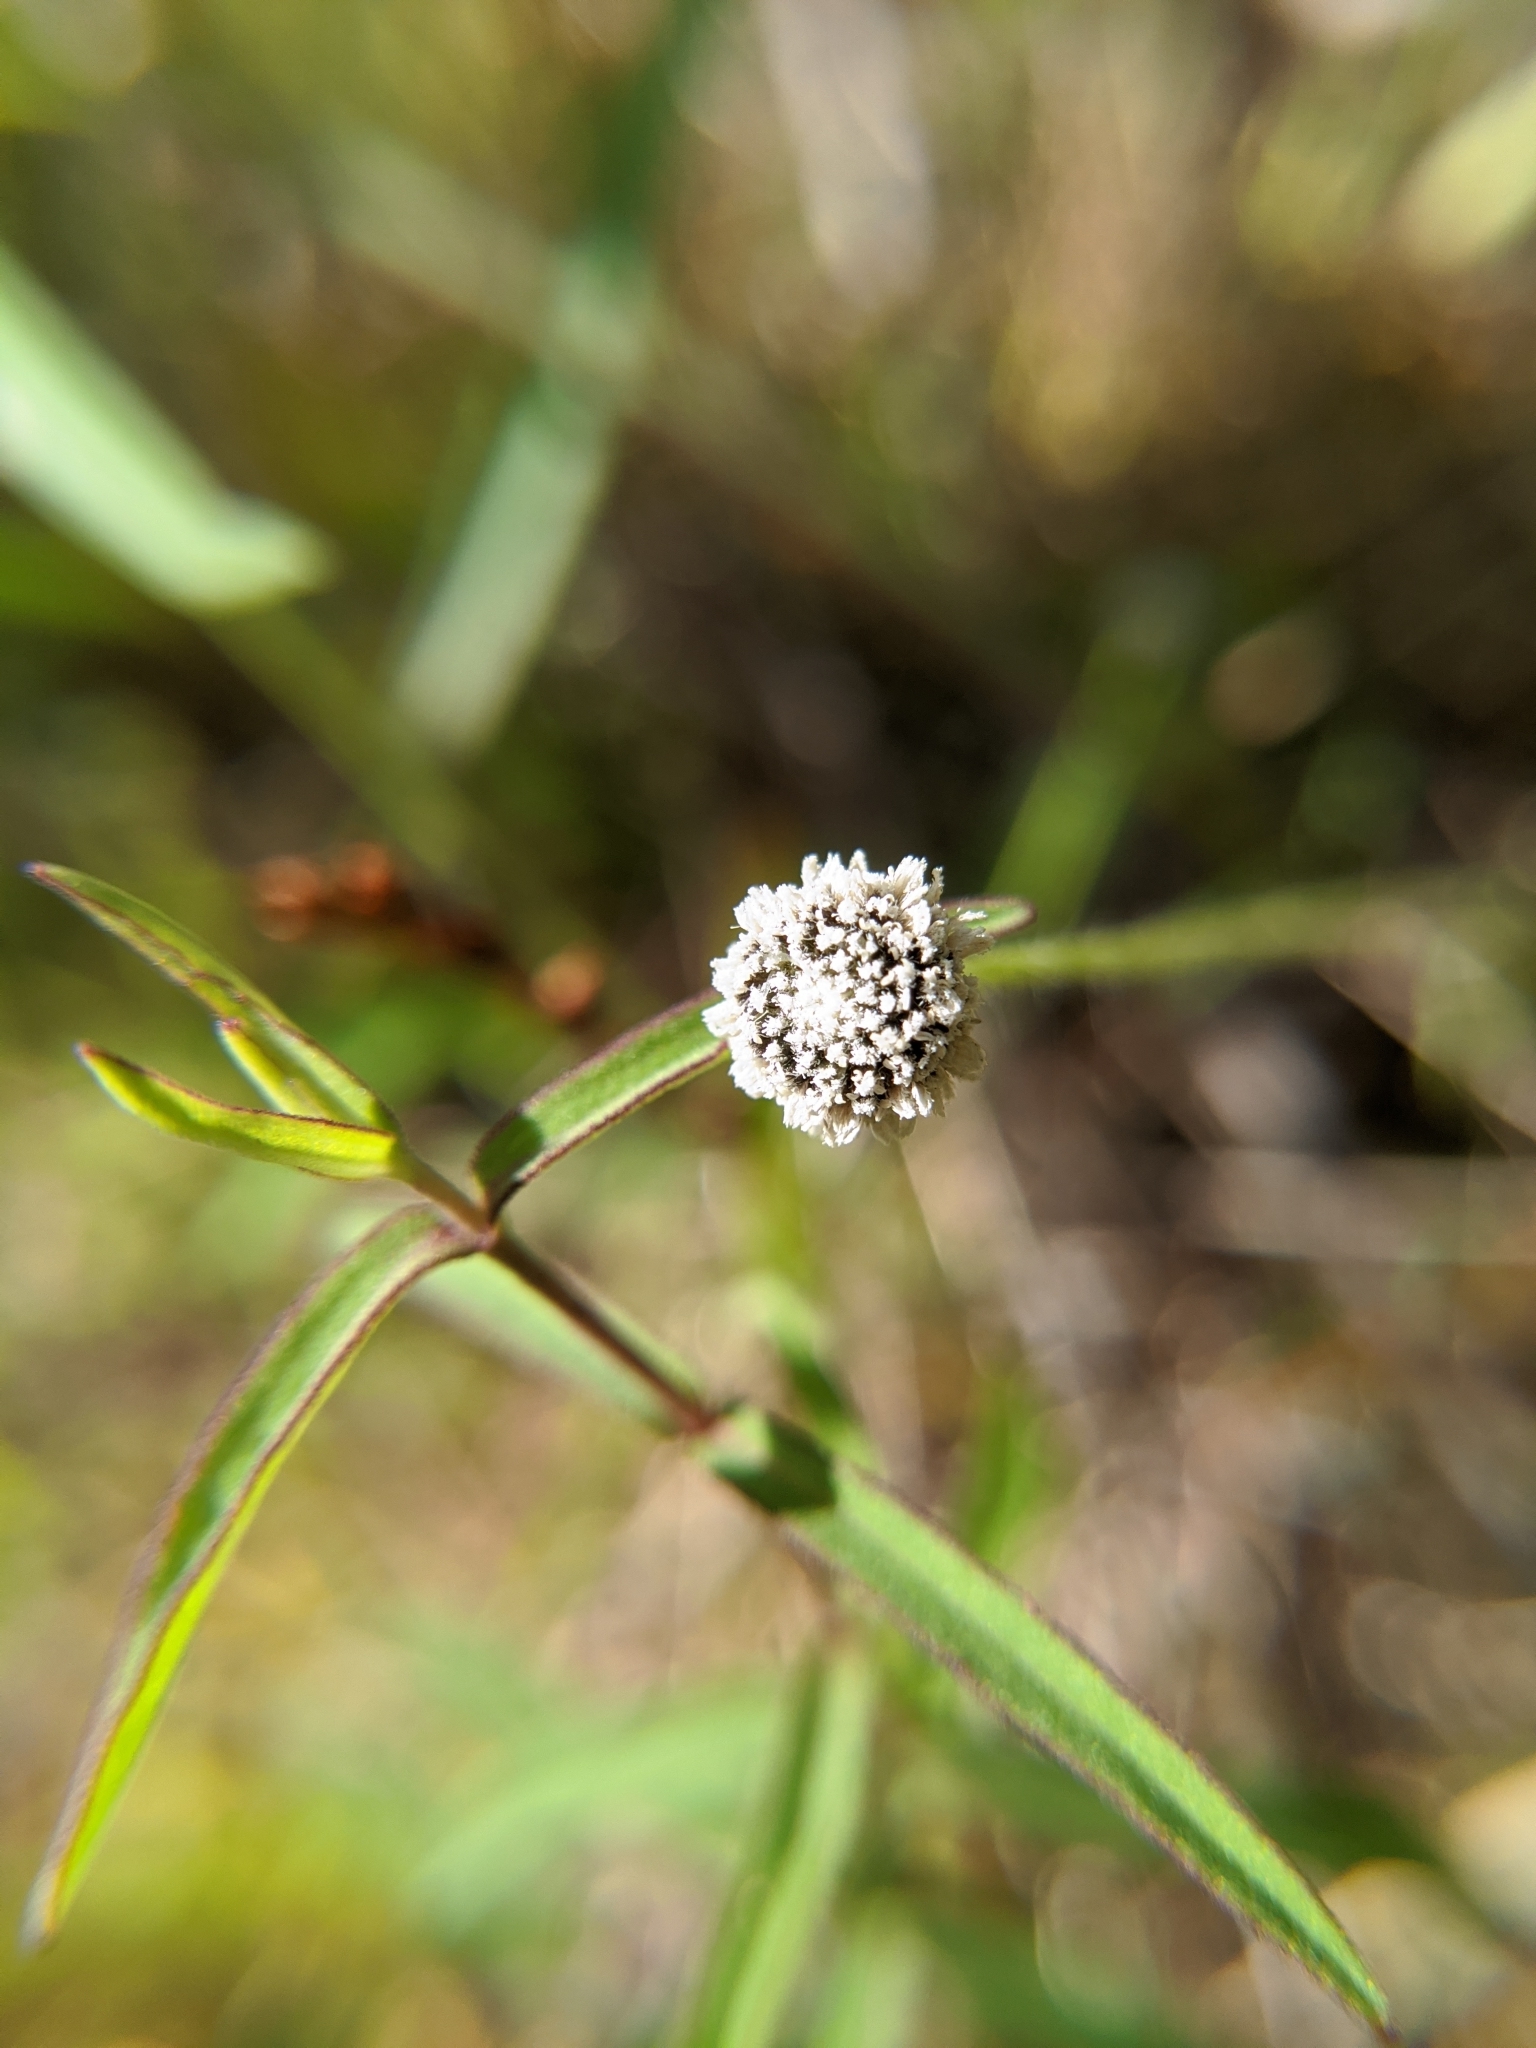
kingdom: Plantae
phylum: Tracheophyta
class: Liliopsida
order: Poales
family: Eriocaulaceae
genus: Paepalanthus
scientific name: Paepalanthus anceps
